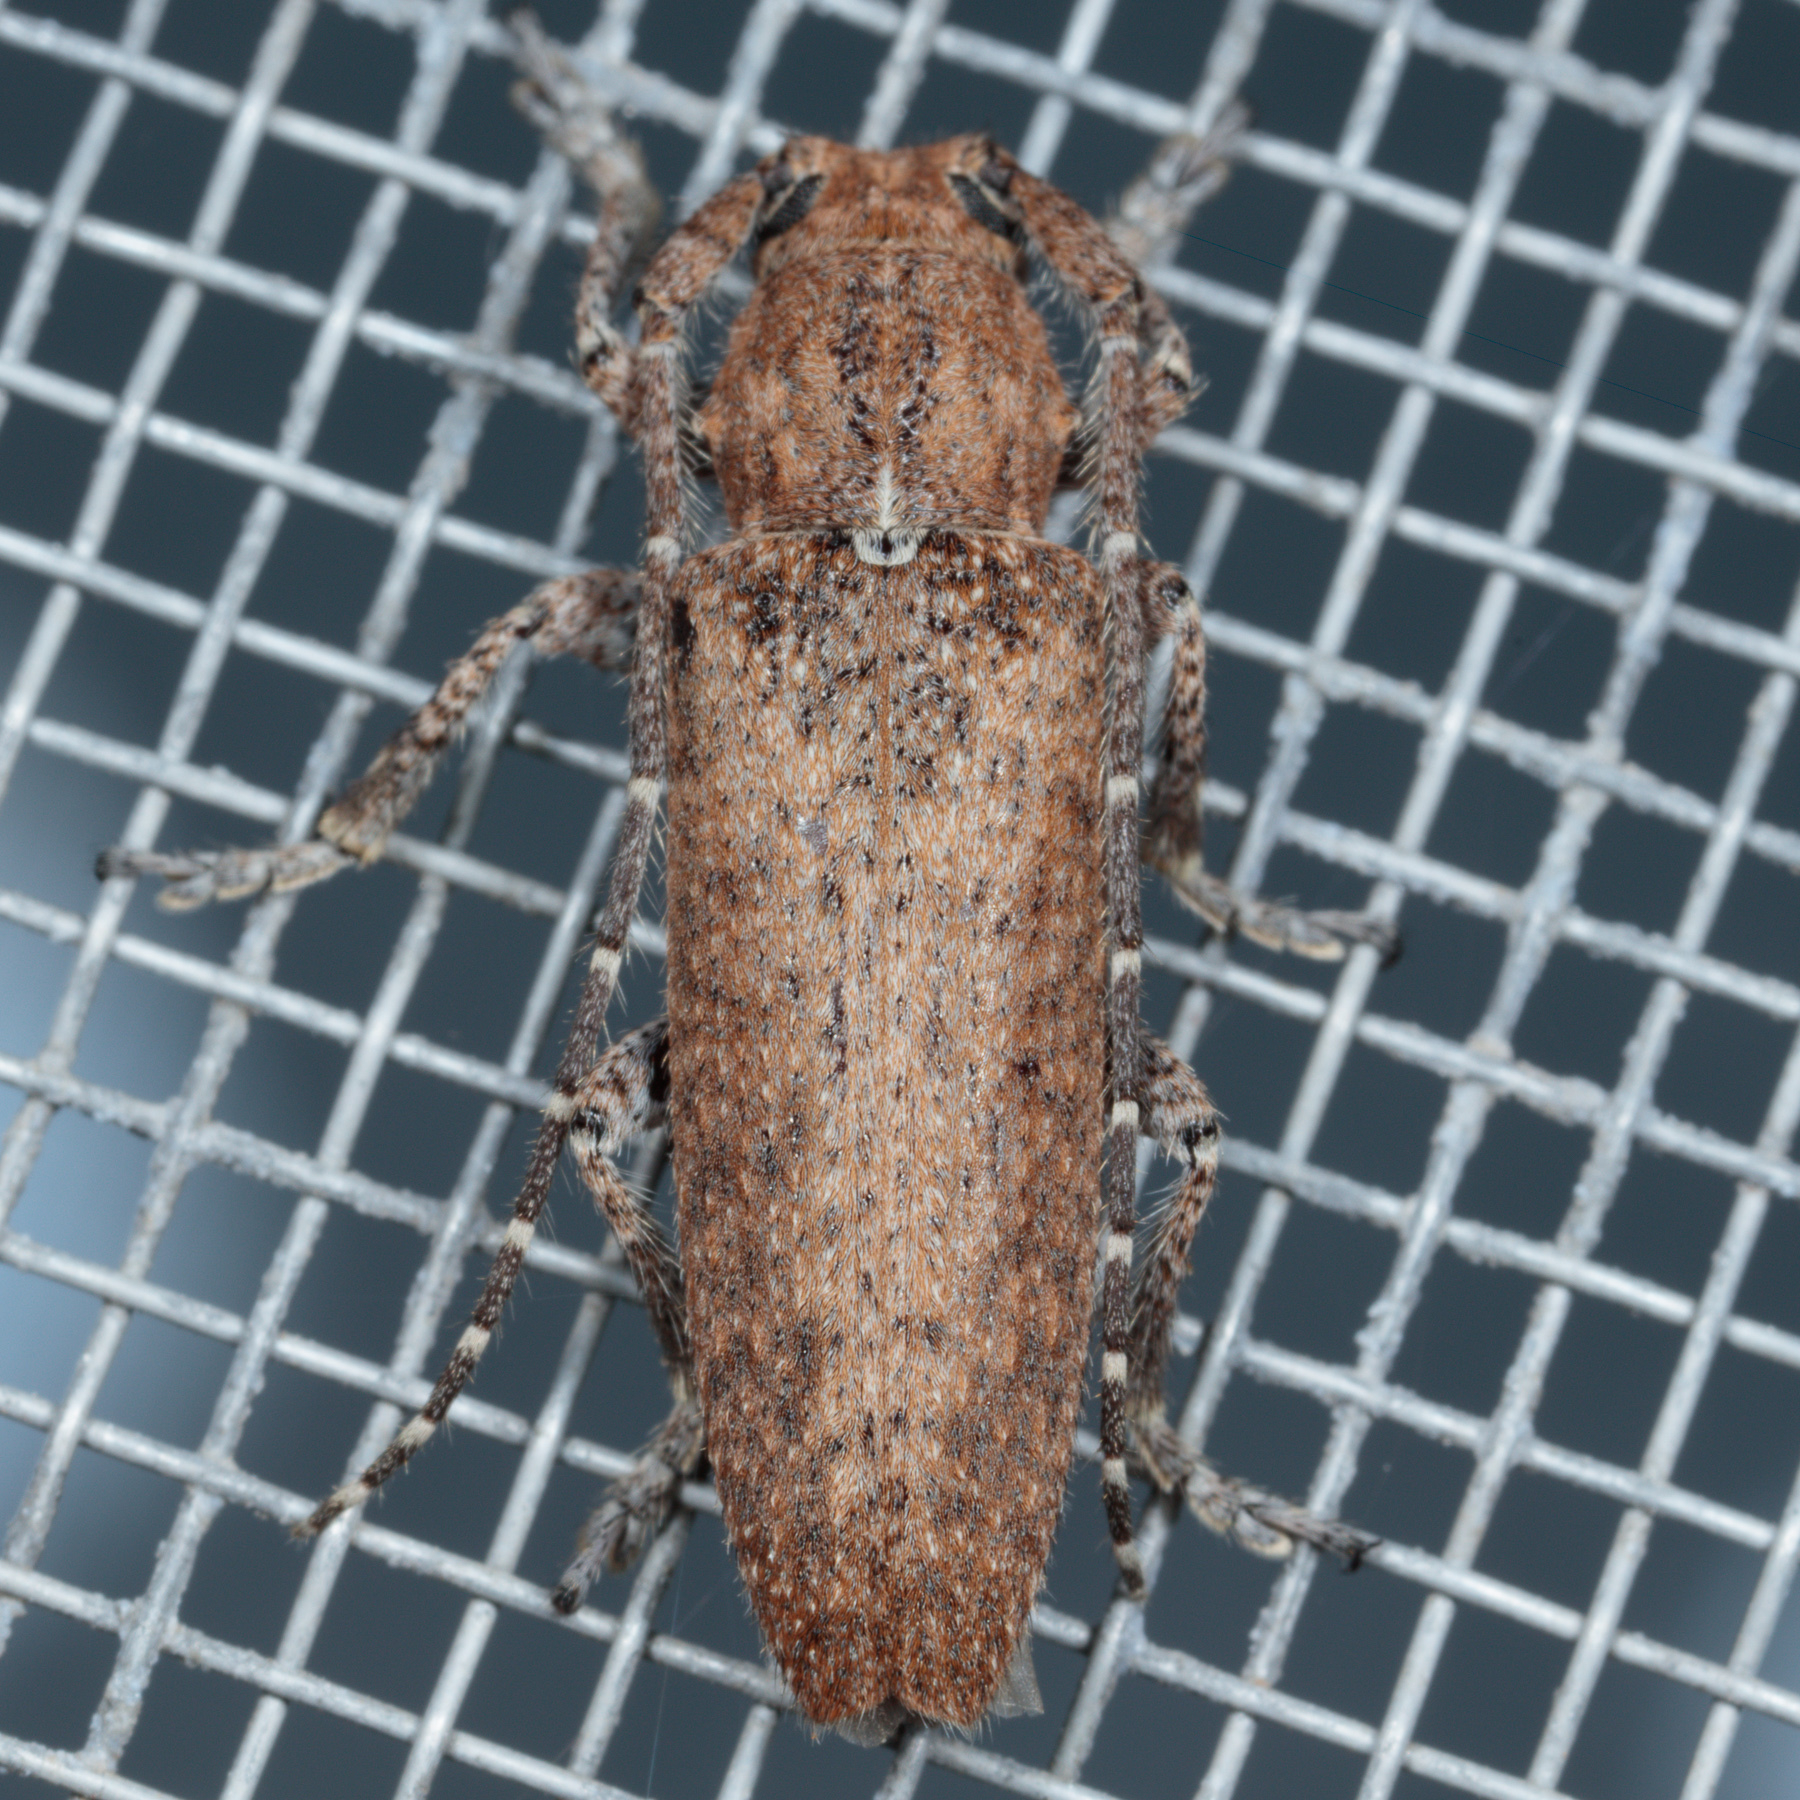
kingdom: Animalia
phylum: Arthropoda
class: Insecta
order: Coleoptera
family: Cerambycidae
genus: Ataxia
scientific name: Ataxia crypta
